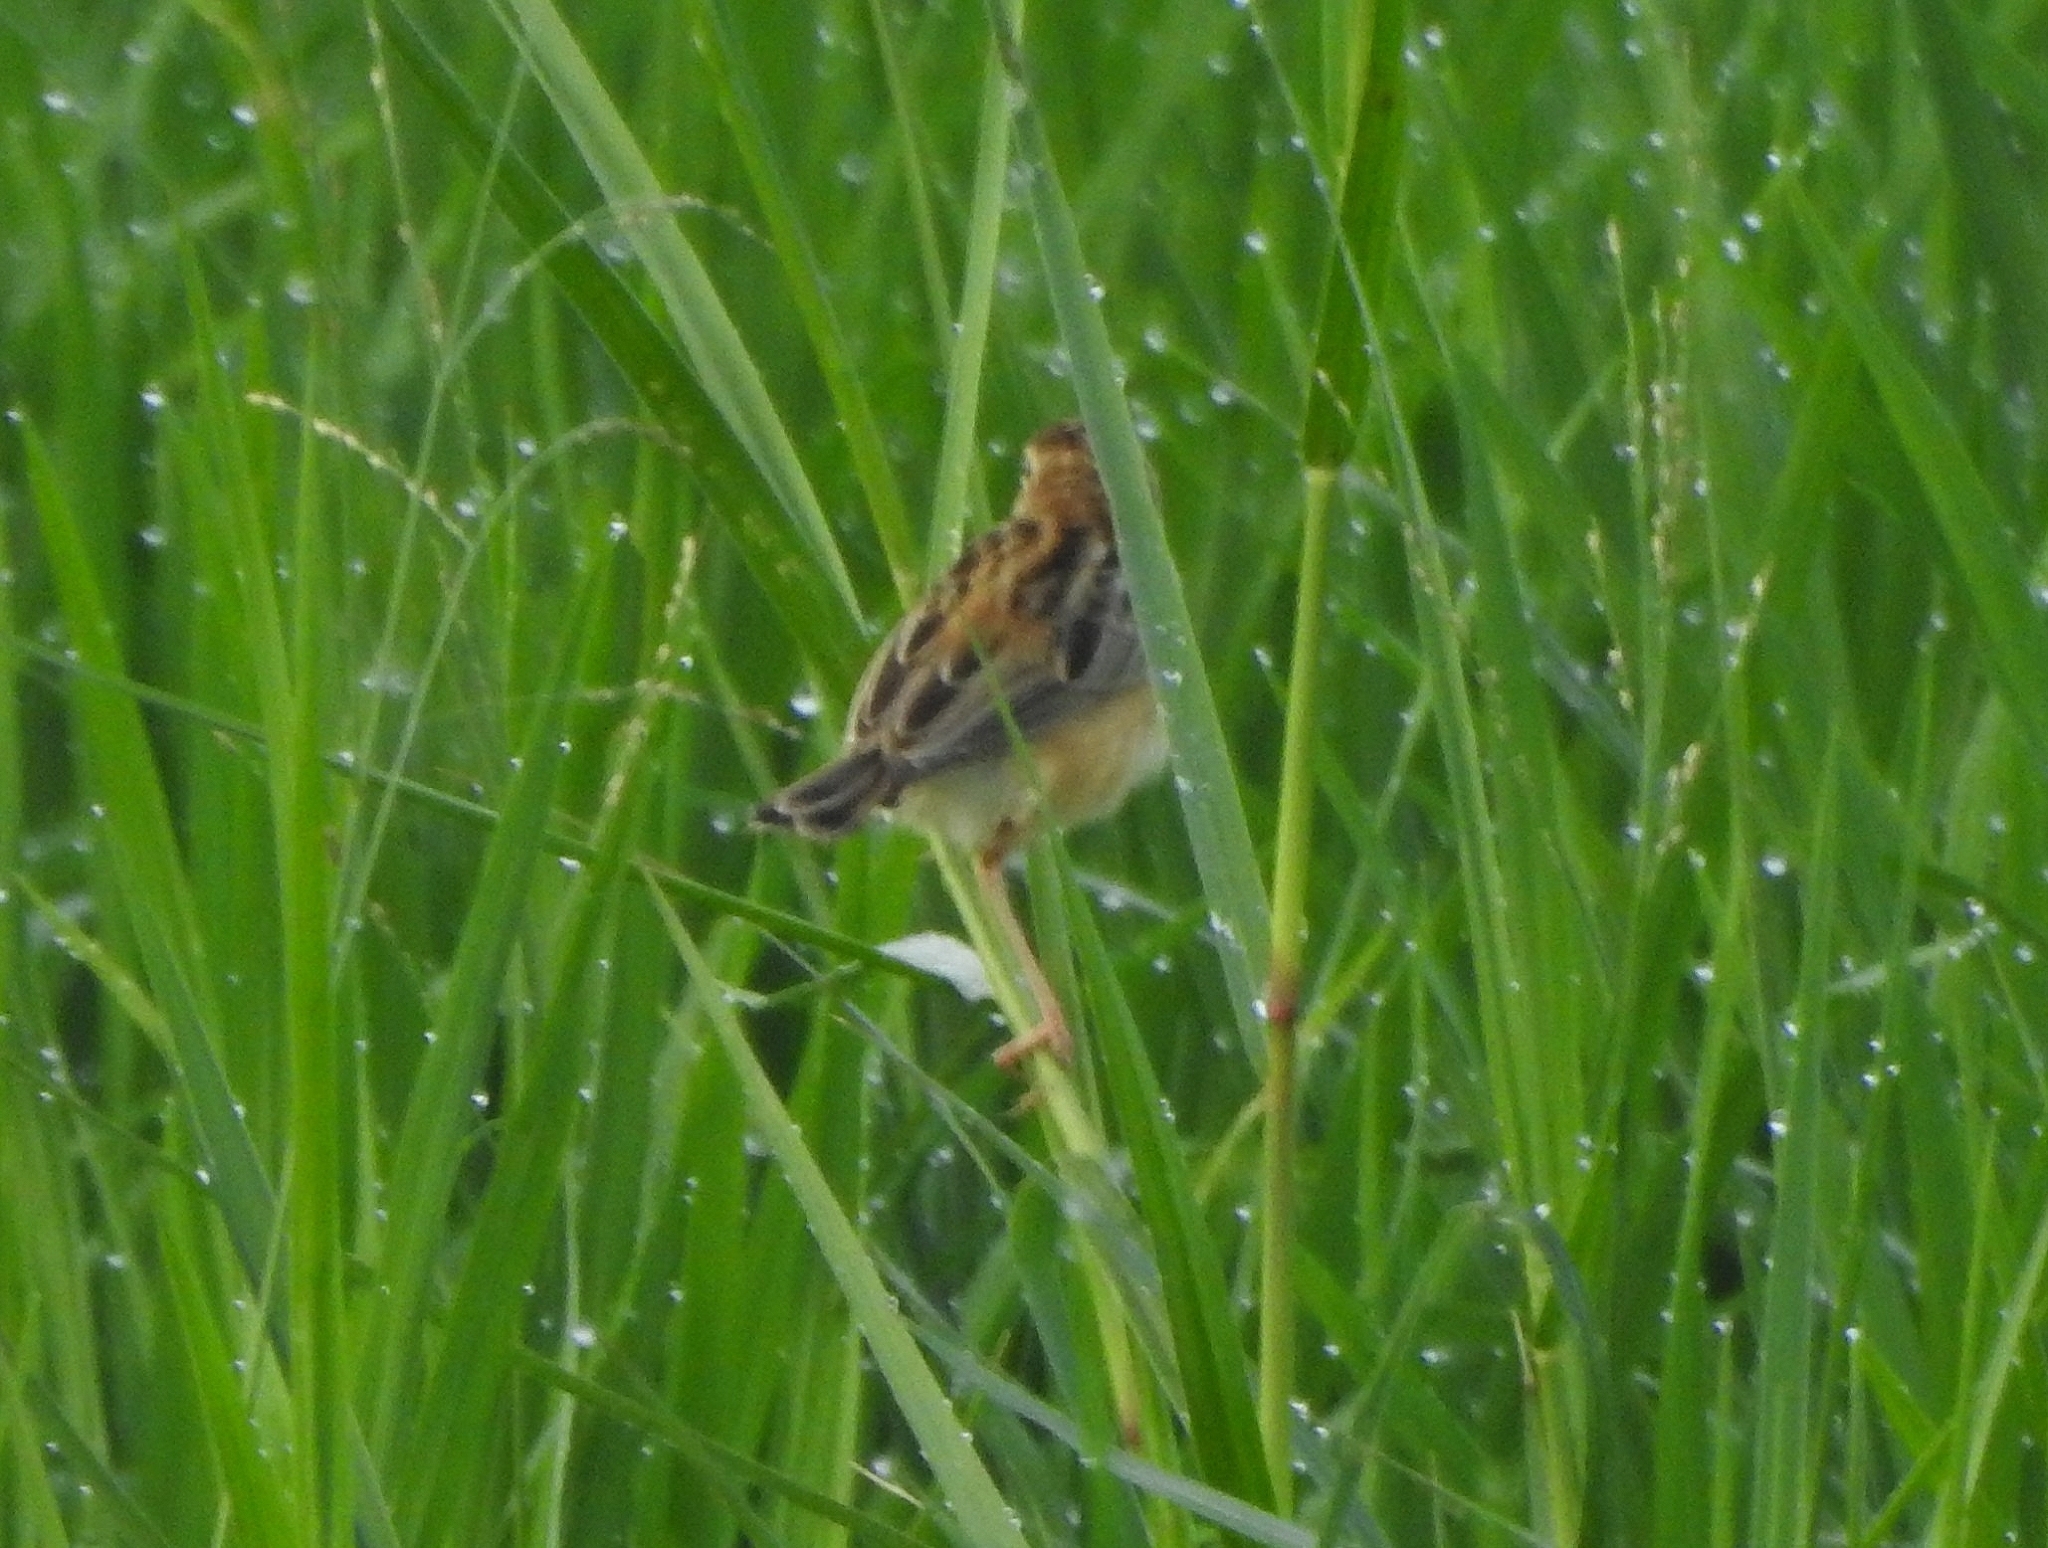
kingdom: Animalia
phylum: Chordata
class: Aves
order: Passeriformes
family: Cisticolidae
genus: Cisticola
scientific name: Cisticola juncidis
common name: Zitting cisticola
